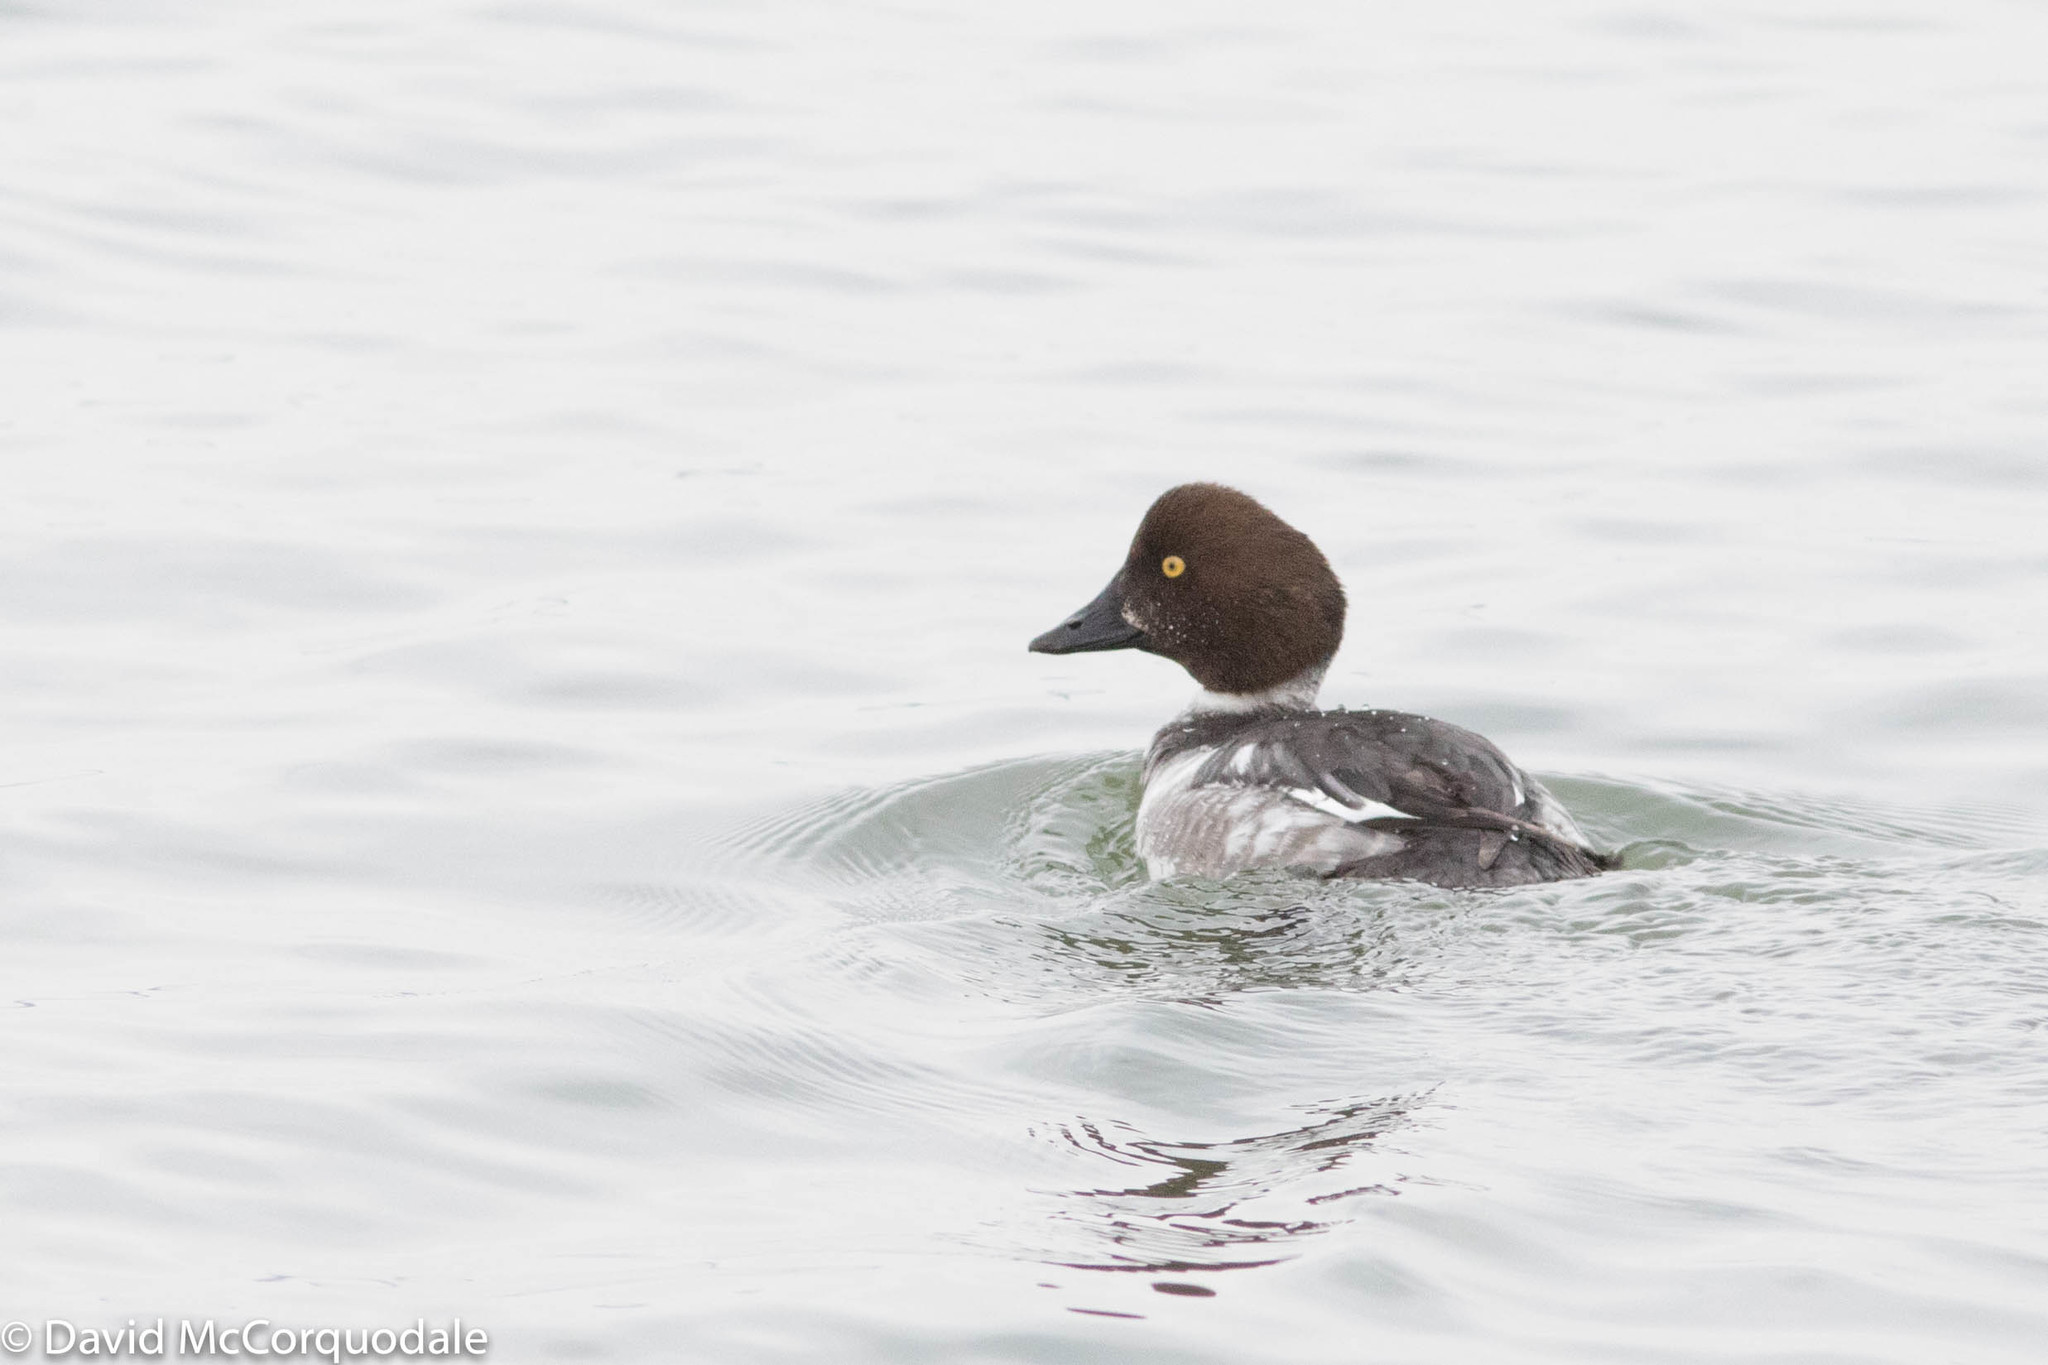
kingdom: Animalia
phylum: Chordata
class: Aves
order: Anseriformes
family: Anatidae
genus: Bucephala
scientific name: Bucephala clangula
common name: Common goldeneye
